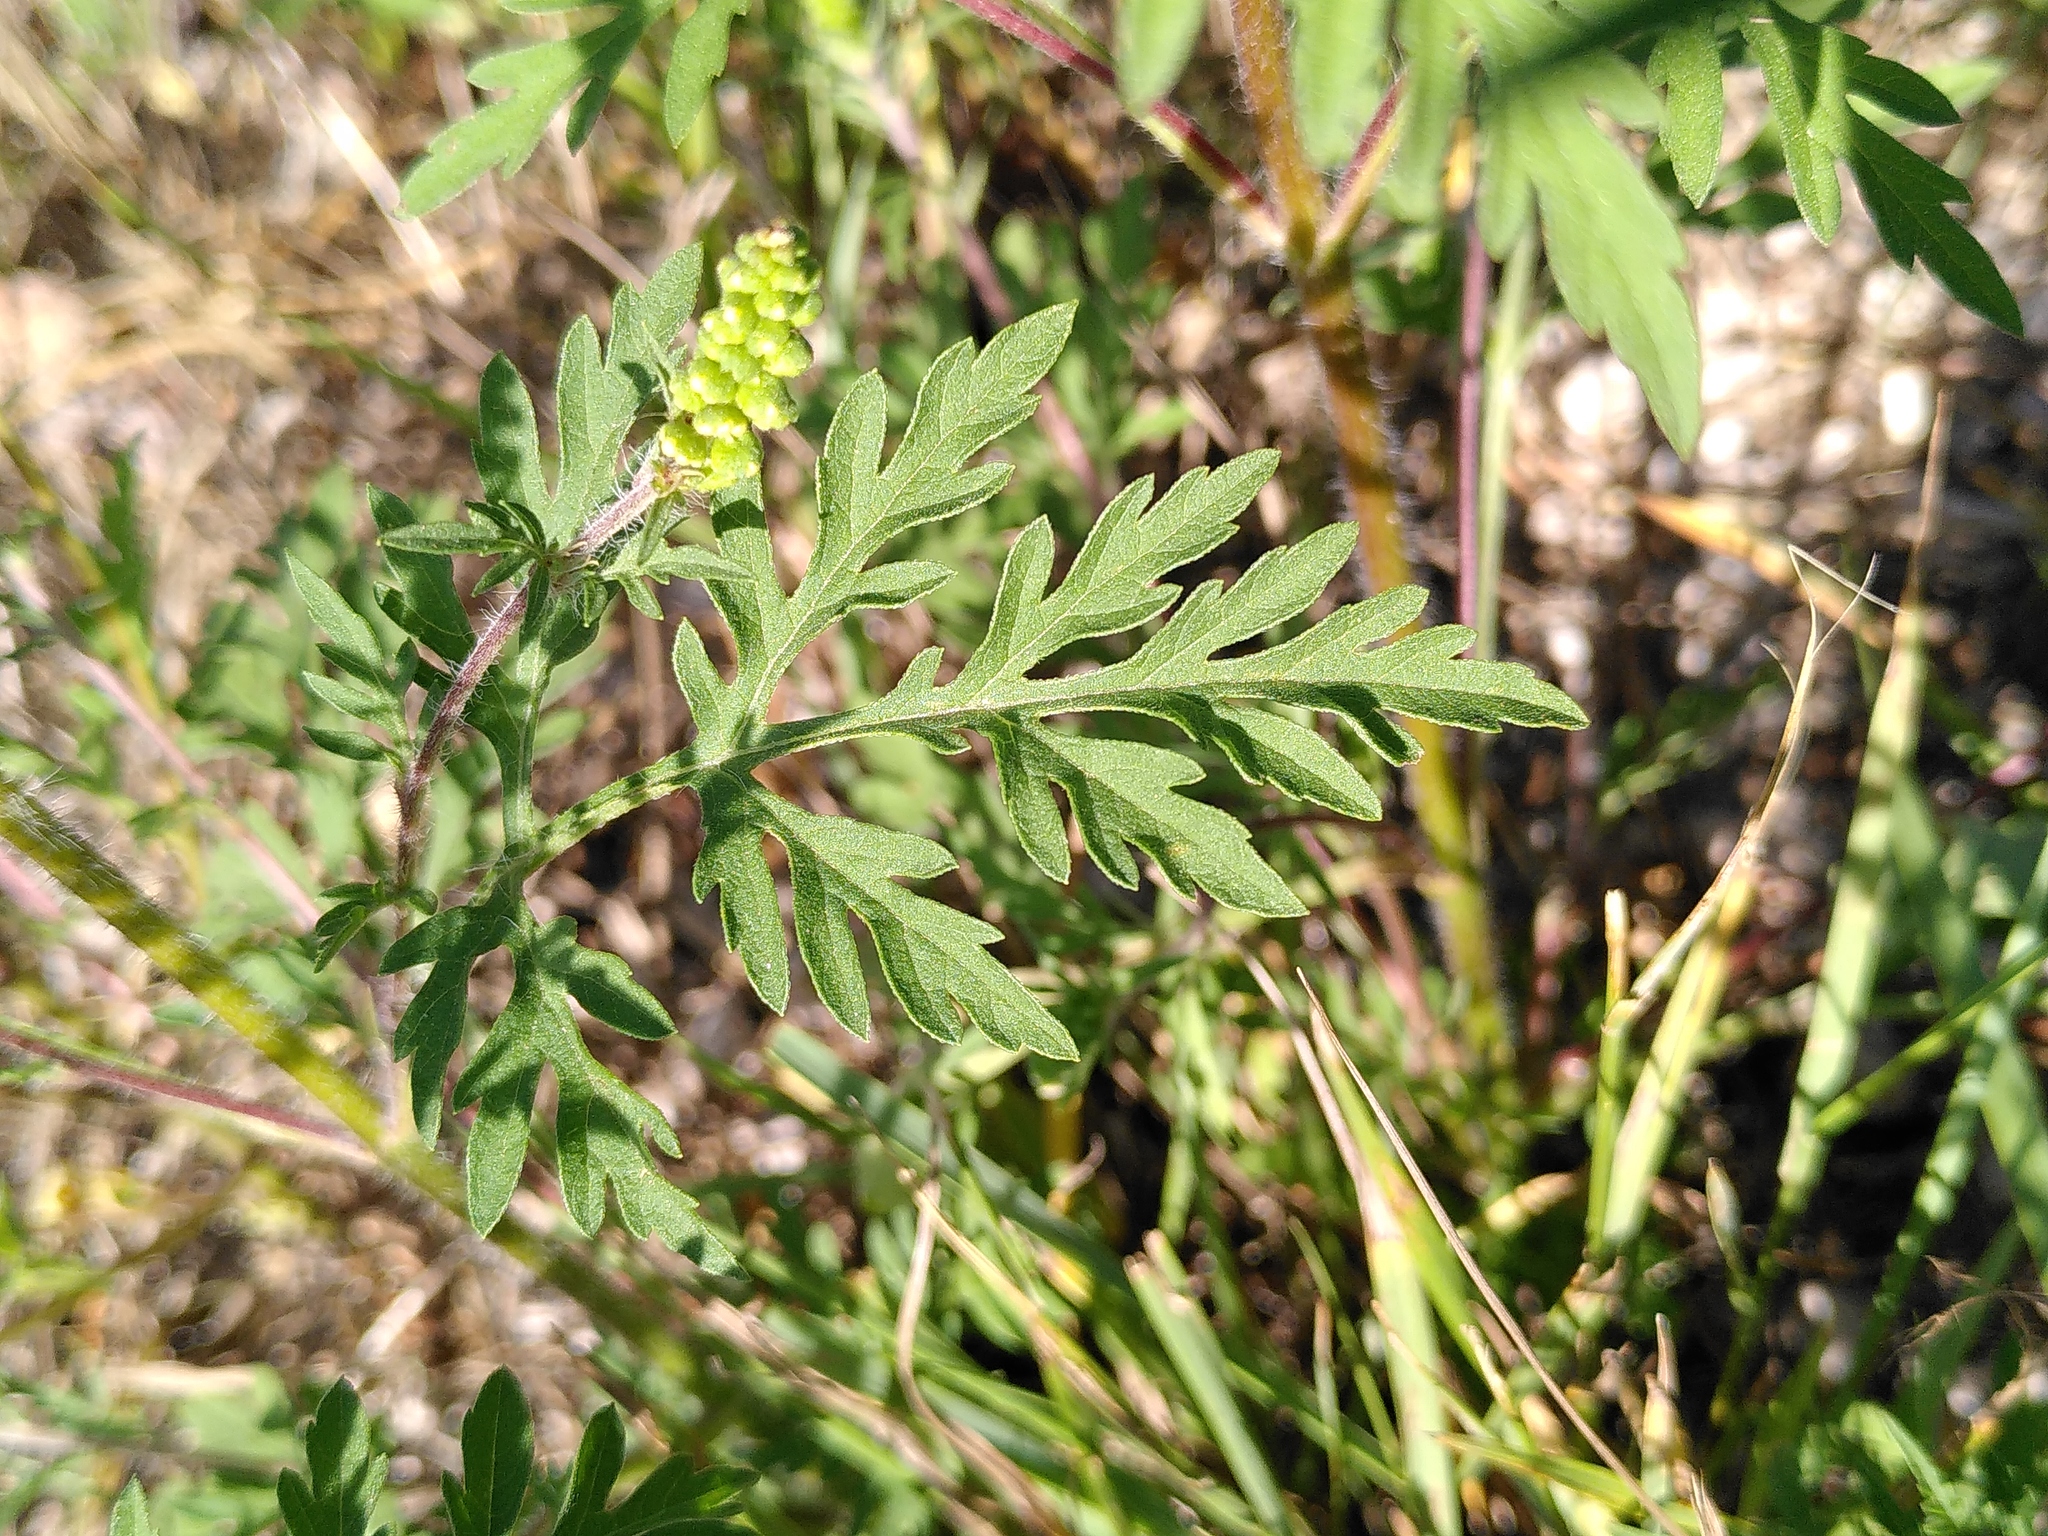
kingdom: Plantae
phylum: Tracheophyta
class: Magnoliopsida
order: Asterales
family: Asteraceae
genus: Ambrosia
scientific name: Ambrosia artemisiifolia
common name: Annual ragweed
